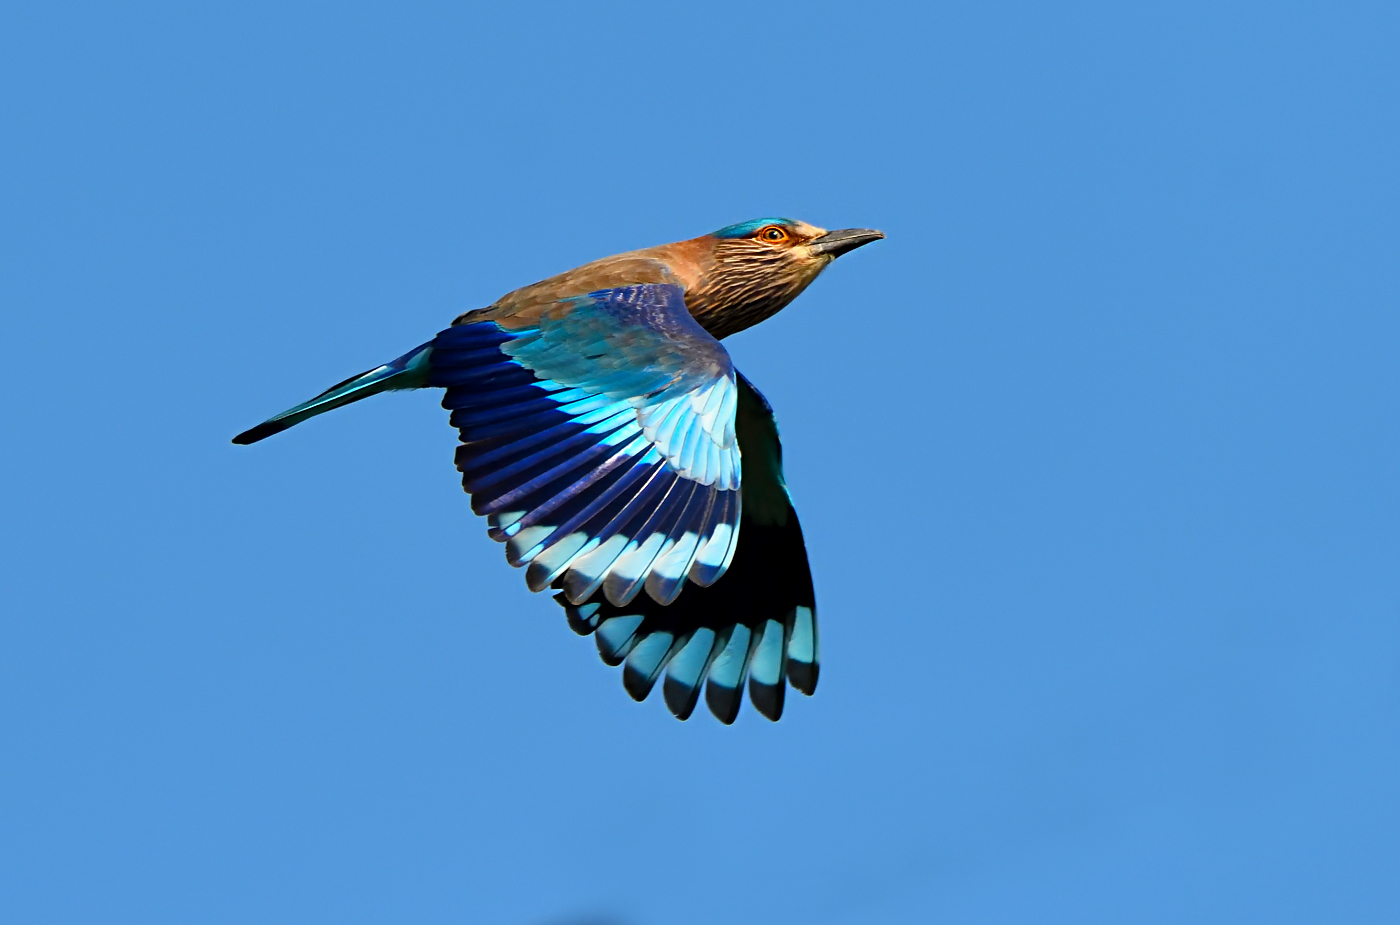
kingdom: Animalia
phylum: Chordata
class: Aves
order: Coraciiformes
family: Coraciidae
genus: Coracias
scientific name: Coracias benghalensis
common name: Indian roller
